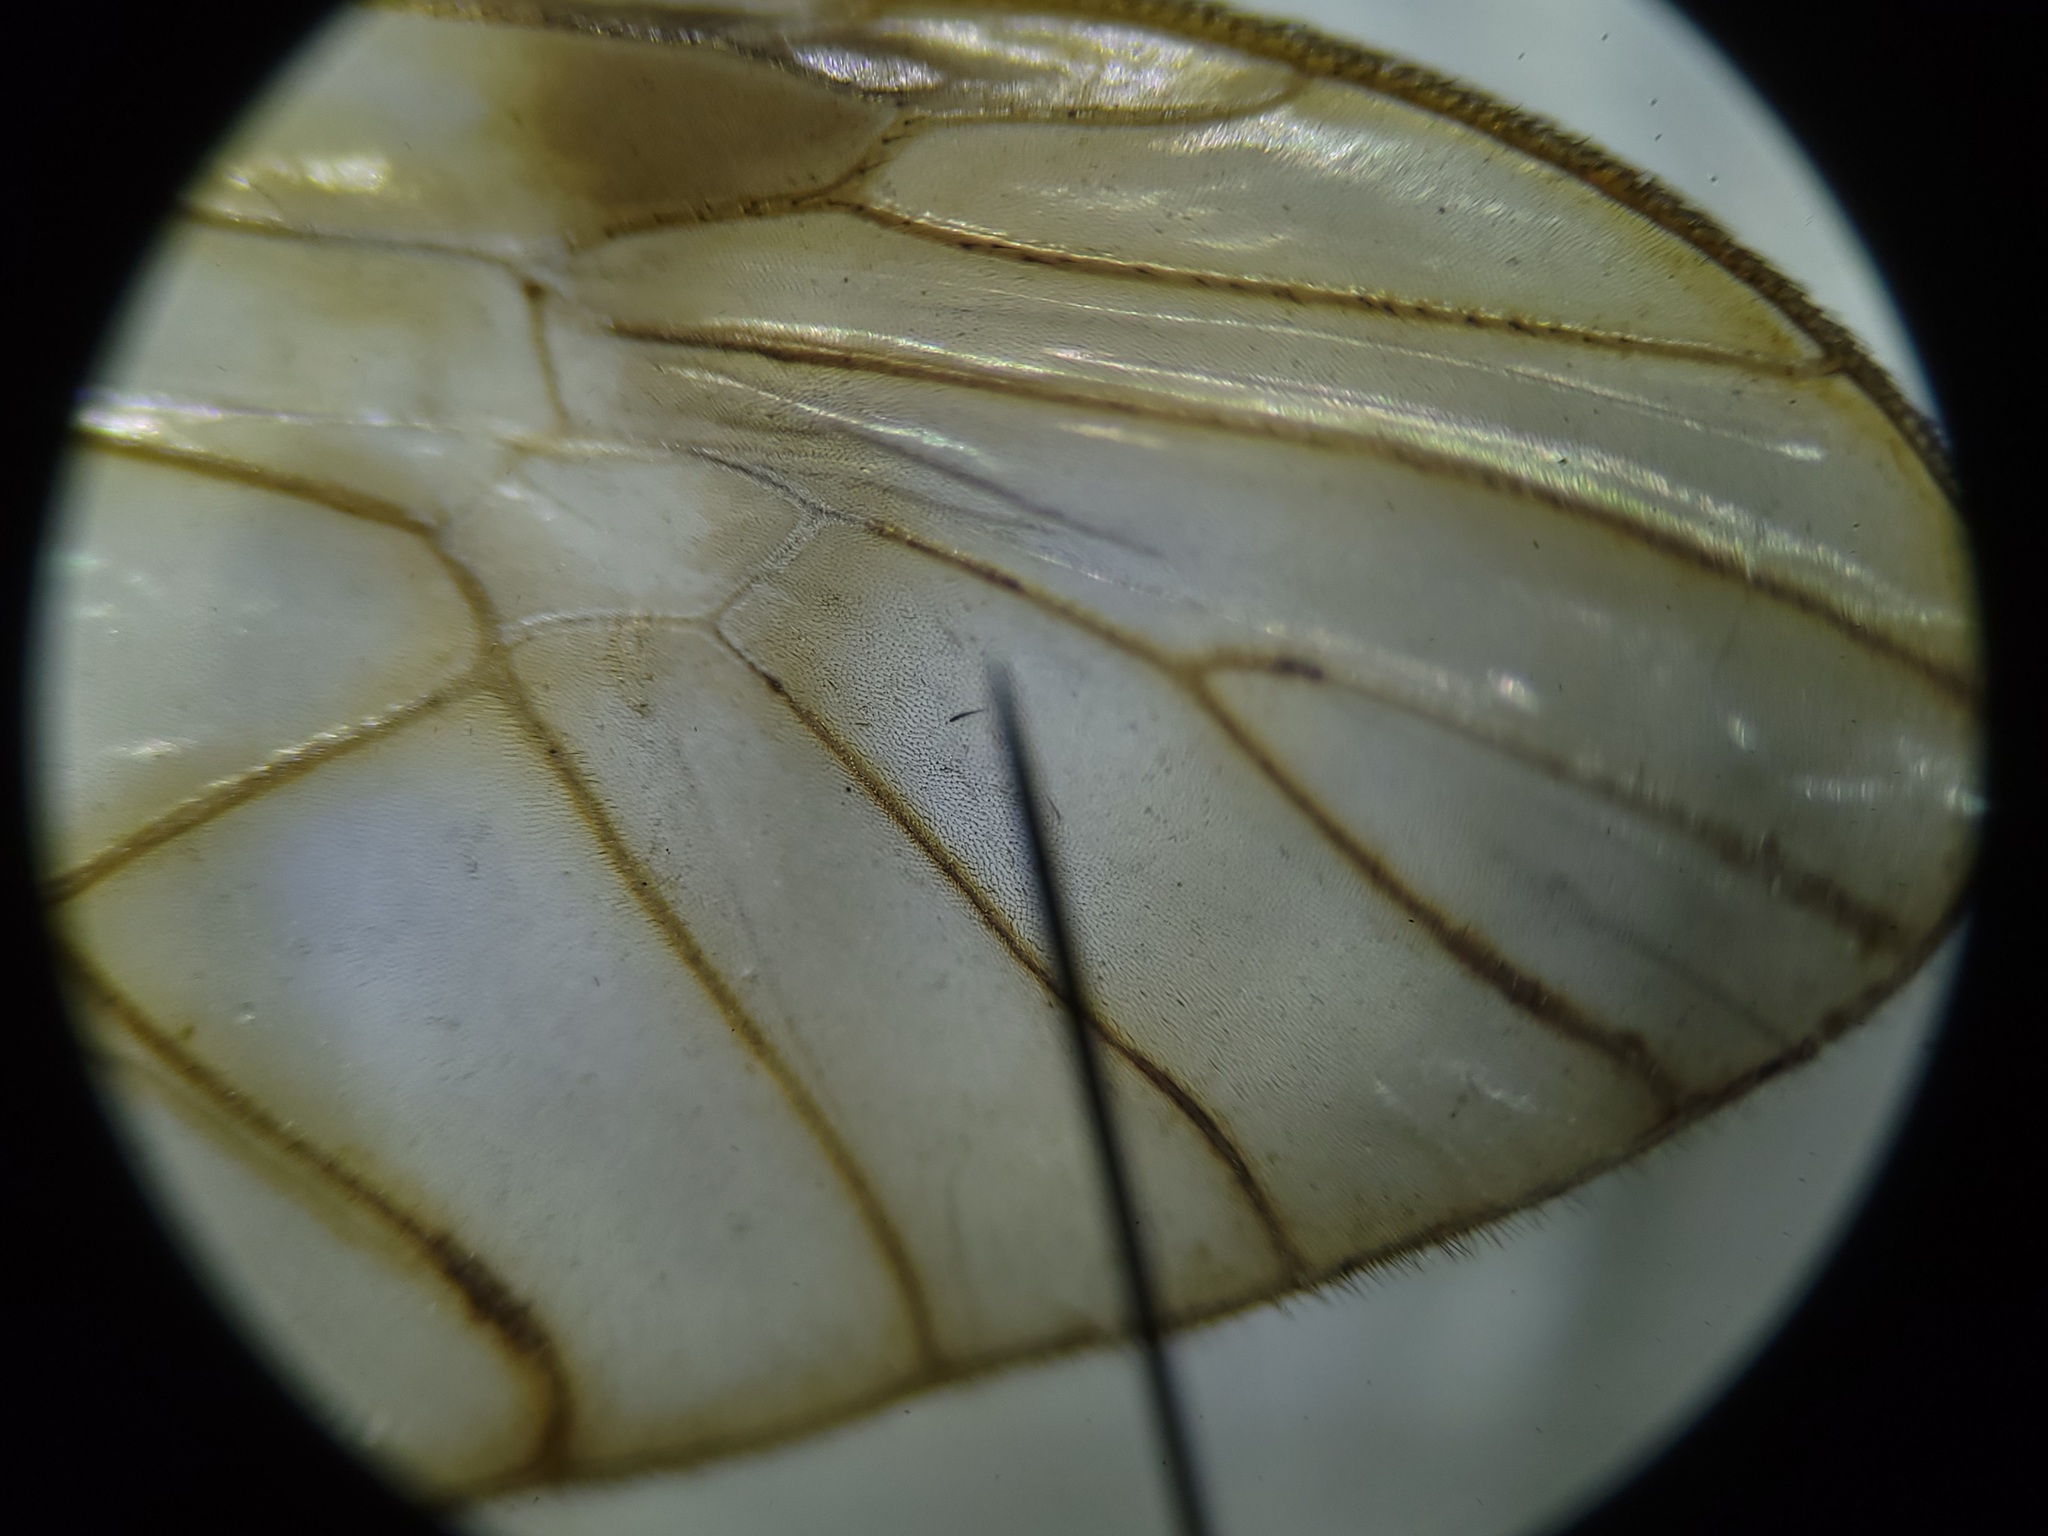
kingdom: Animalia
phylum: Arthropoda
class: Insecta
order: Diptera
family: Tipulidae
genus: Tipula
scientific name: Tipula megaura
